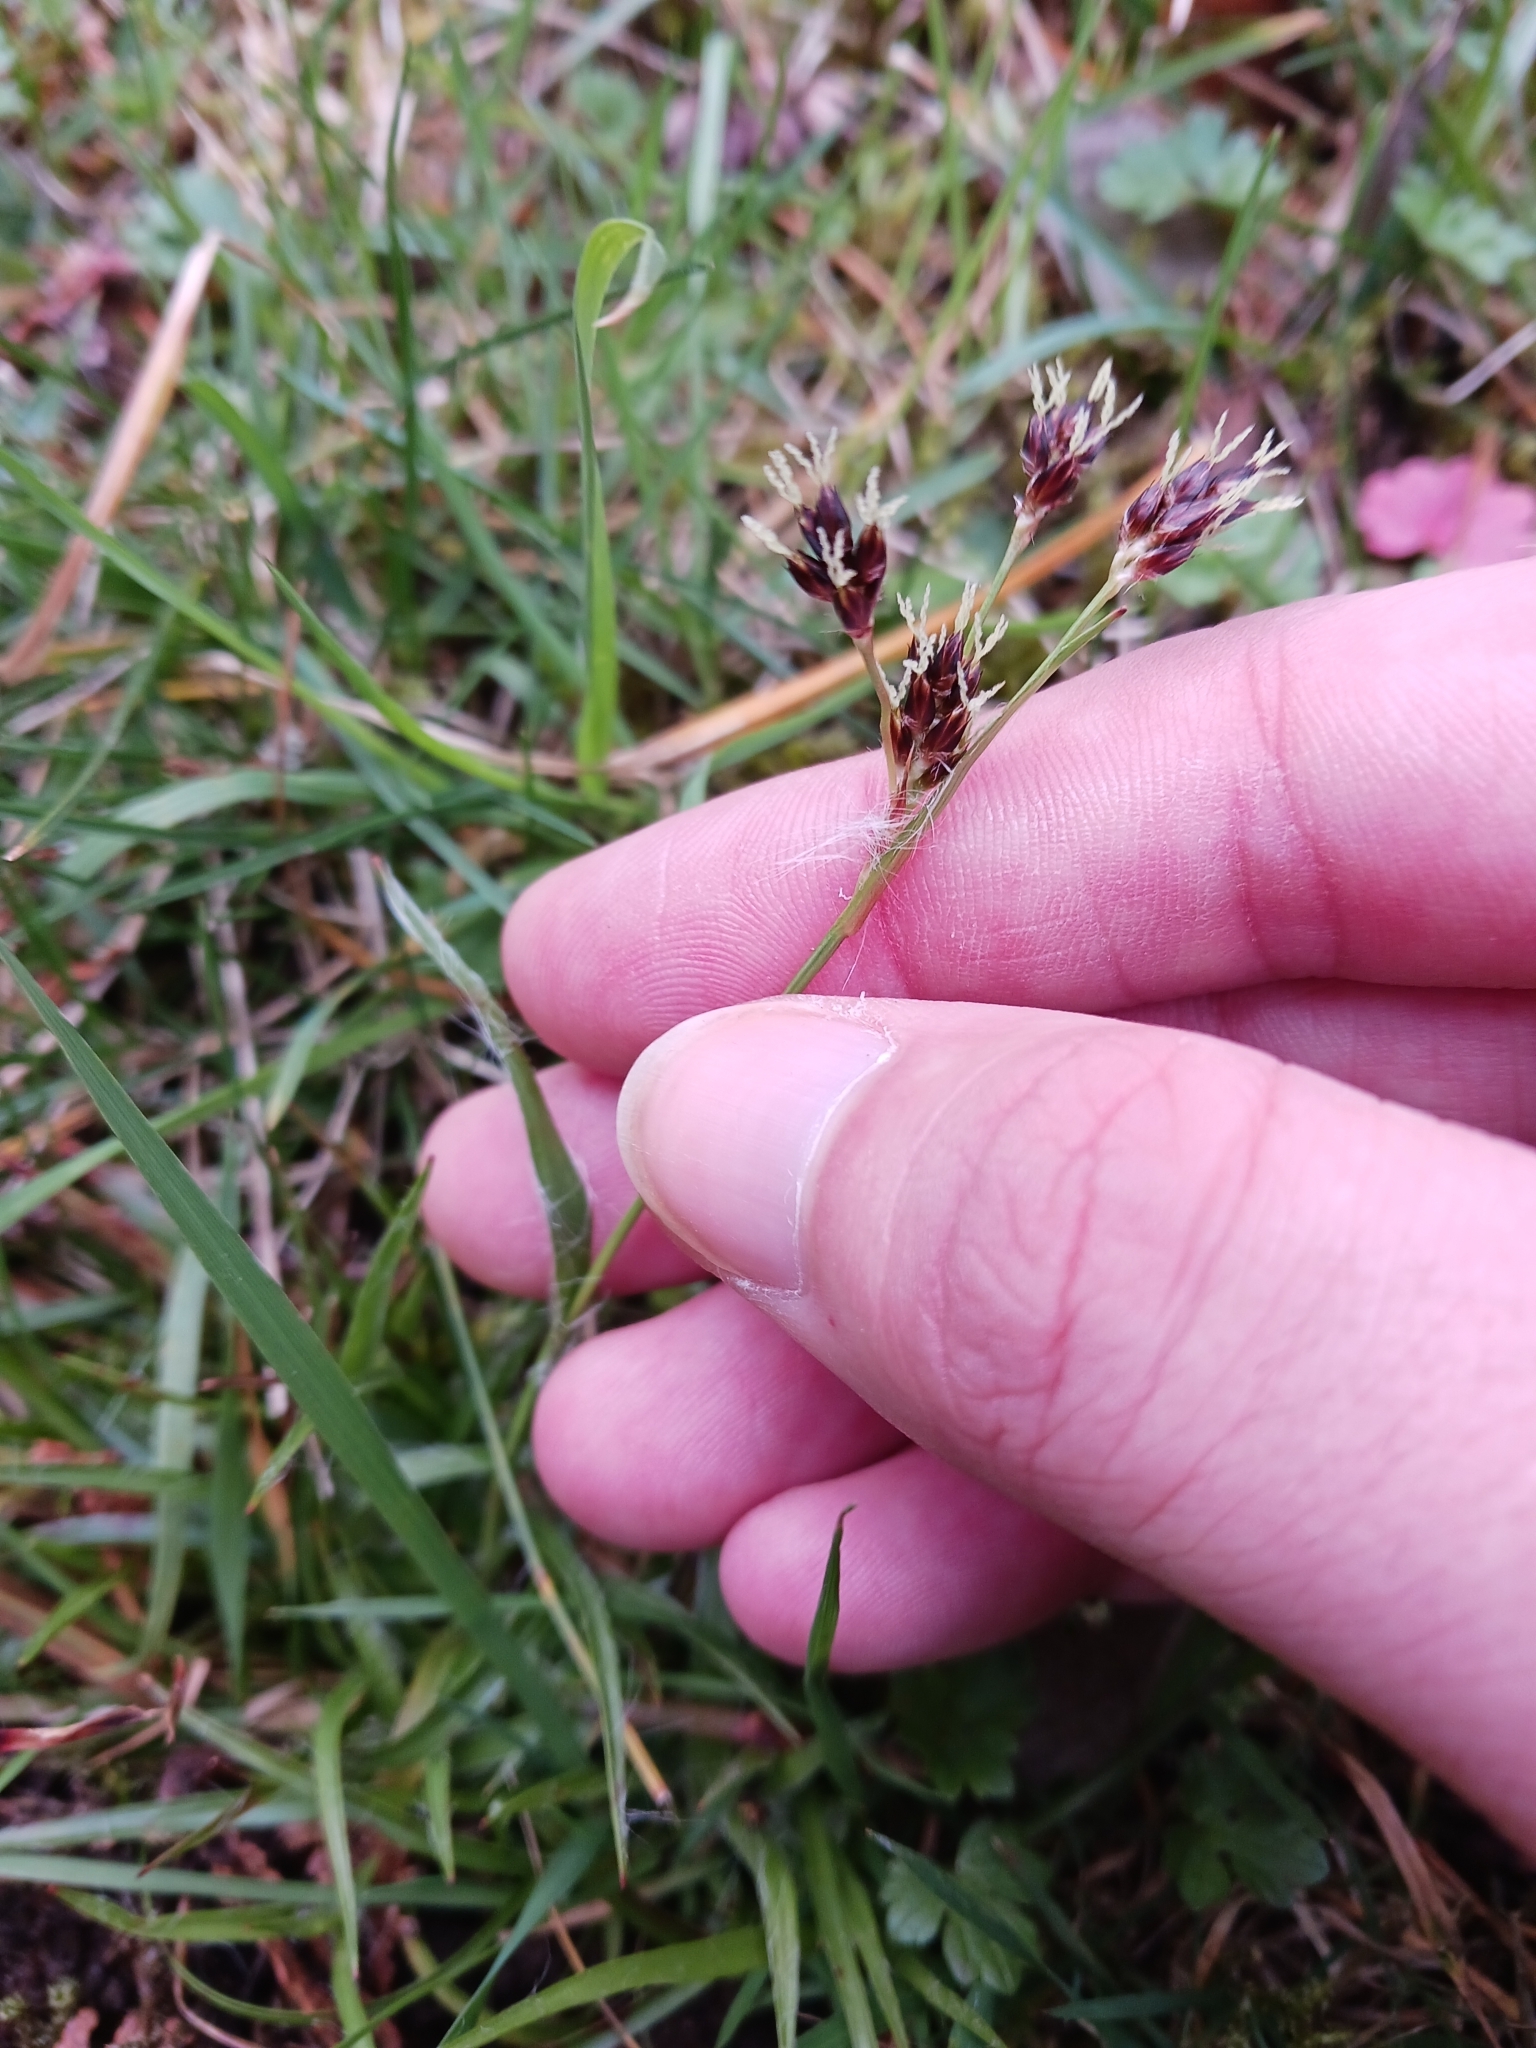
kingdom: Plantae
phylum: Tracheophyta
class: Liliopsida
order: Poales
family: Juncaceae
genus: Luzula
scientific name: Luzula campestris
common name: Field wood-rush
